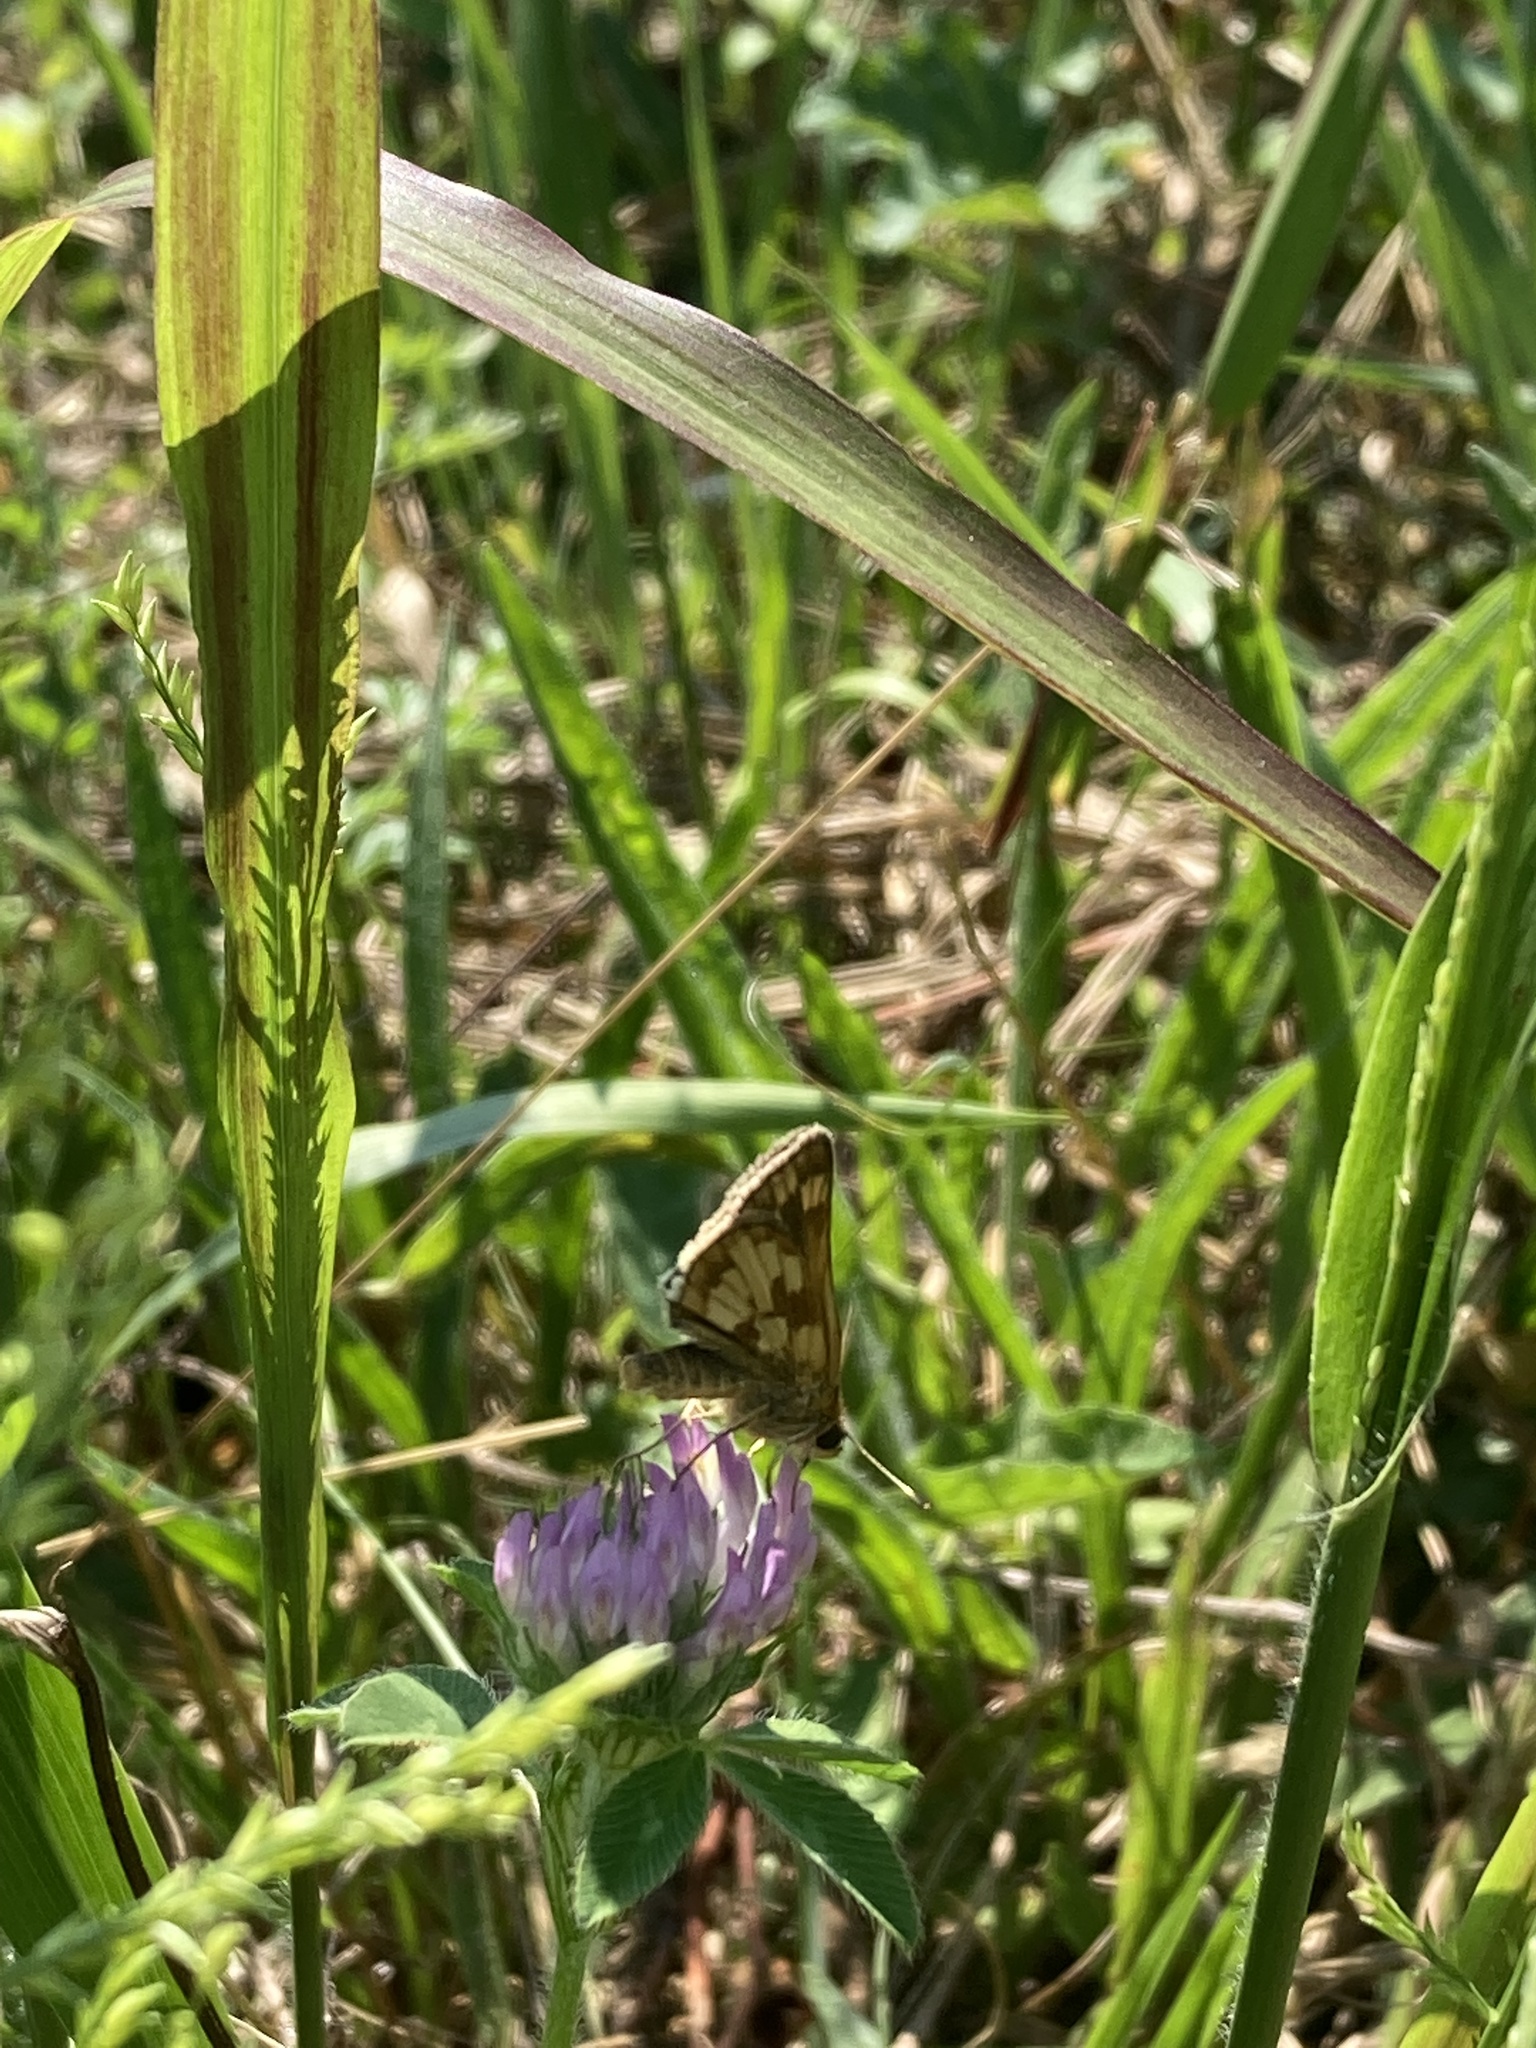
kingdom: Animalia
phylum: Arthropoda
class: Insecta
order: Lepidoptera
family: Hesperiidae
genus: Polites
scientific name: Polites coras
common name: Peck's skipper
